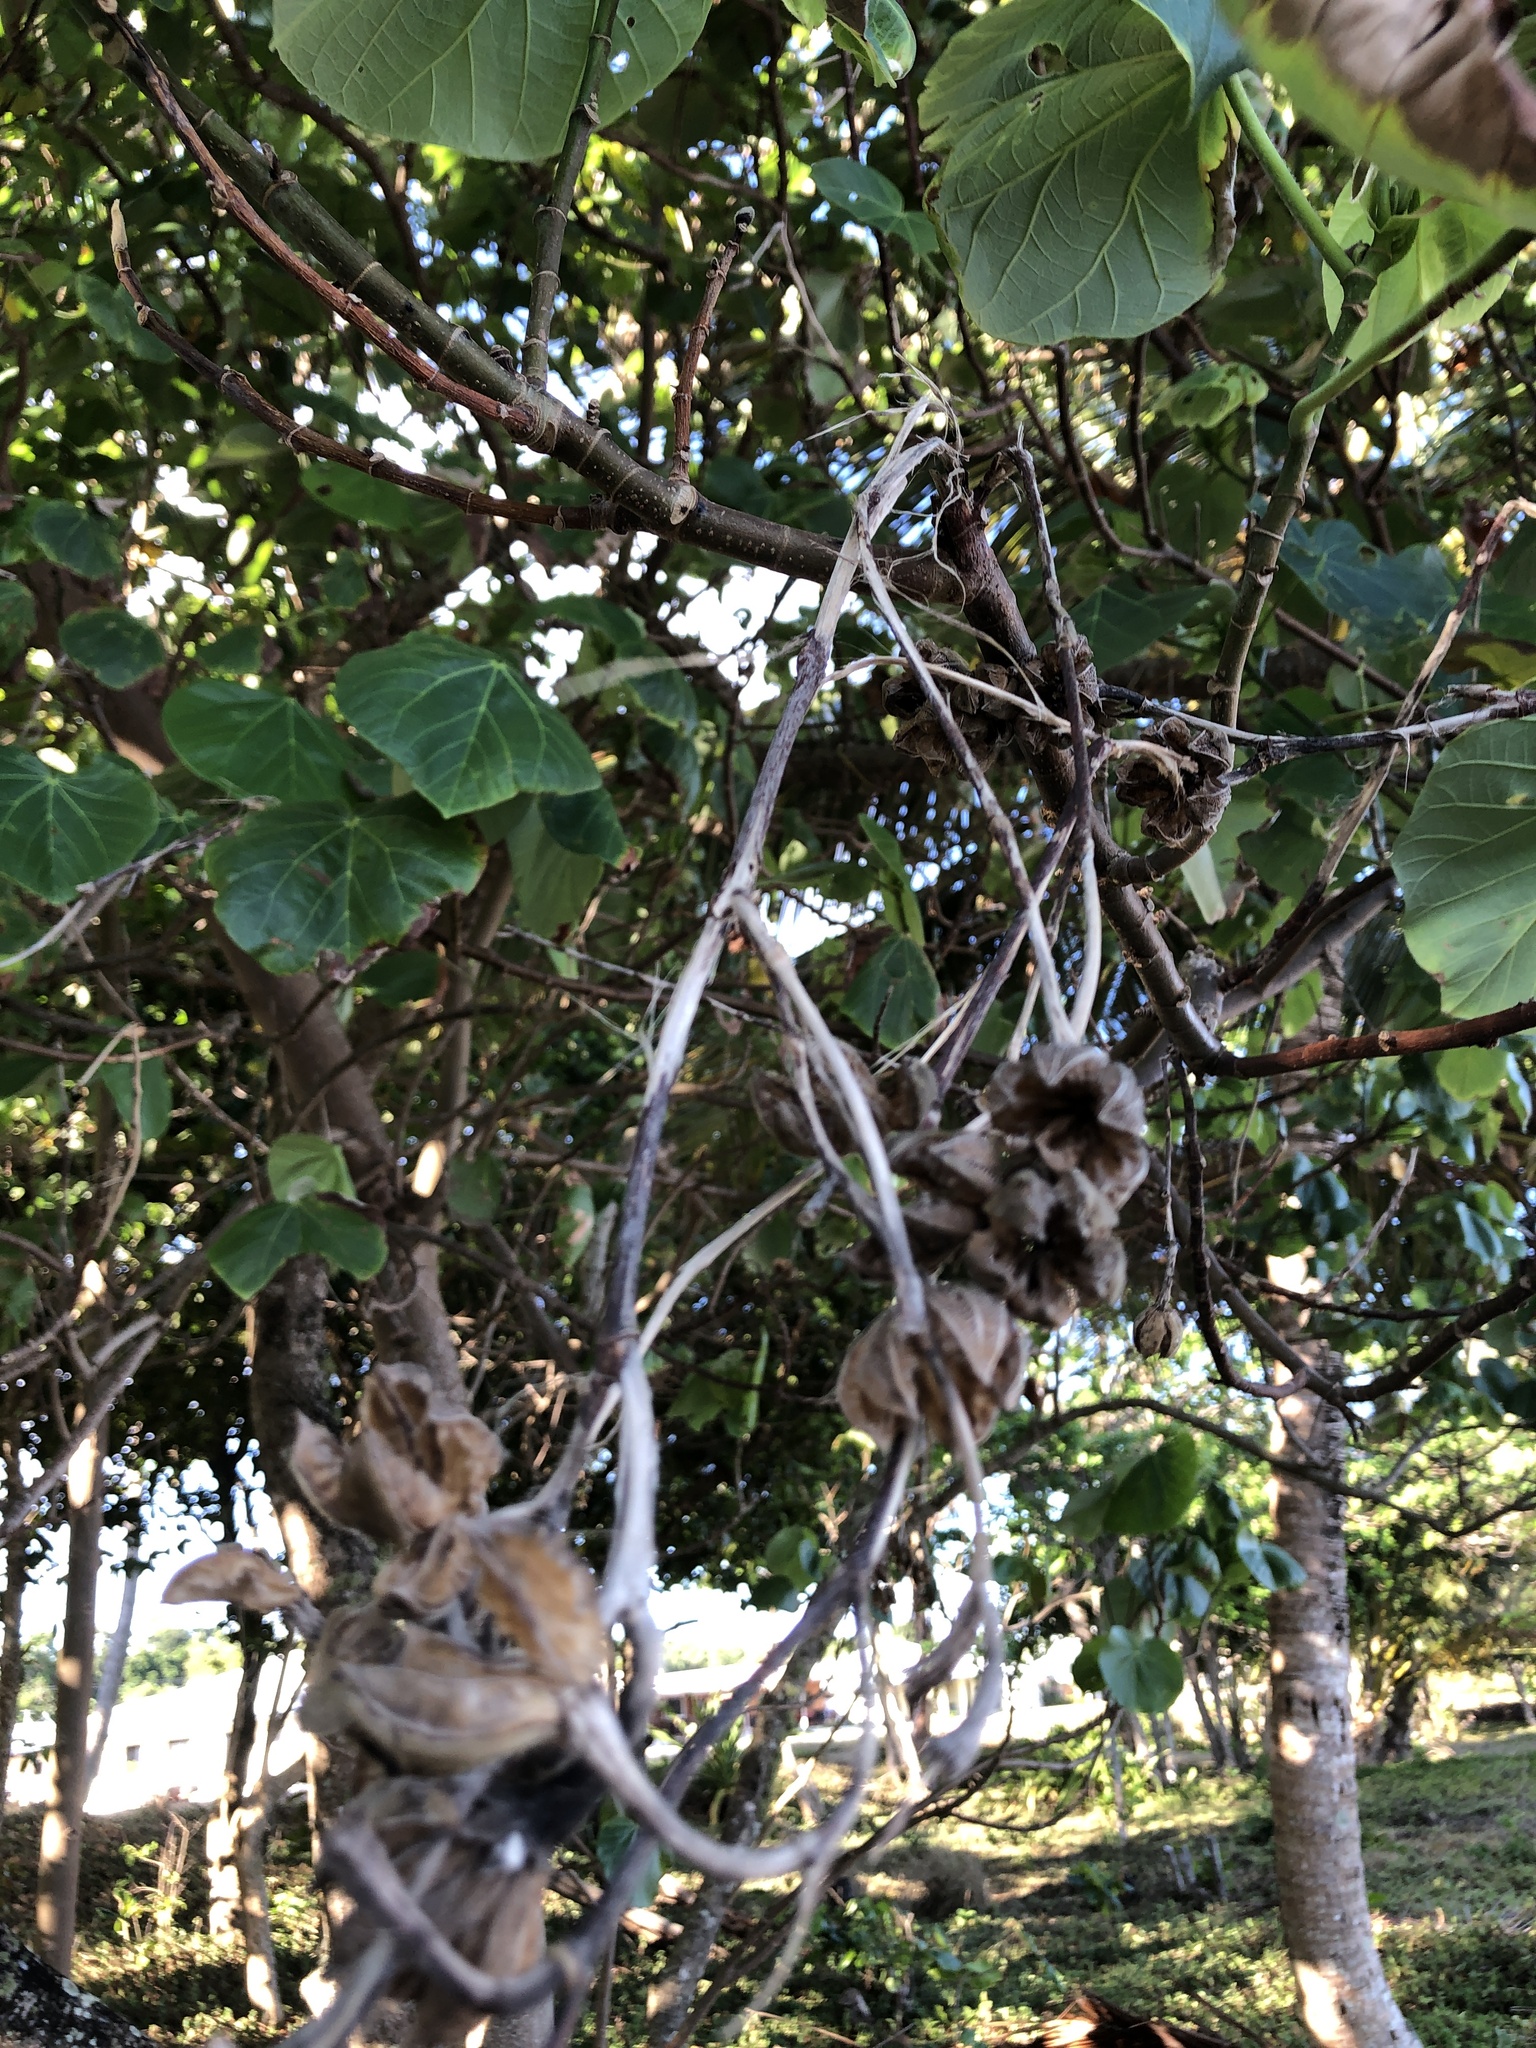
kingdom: Plantae
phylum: Tracheophyta
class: Magnoliopsida
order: Malvales
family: Malvaceae
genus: Talipariti
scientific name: Talipariti tiliaceum
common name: Sea hibiscus
